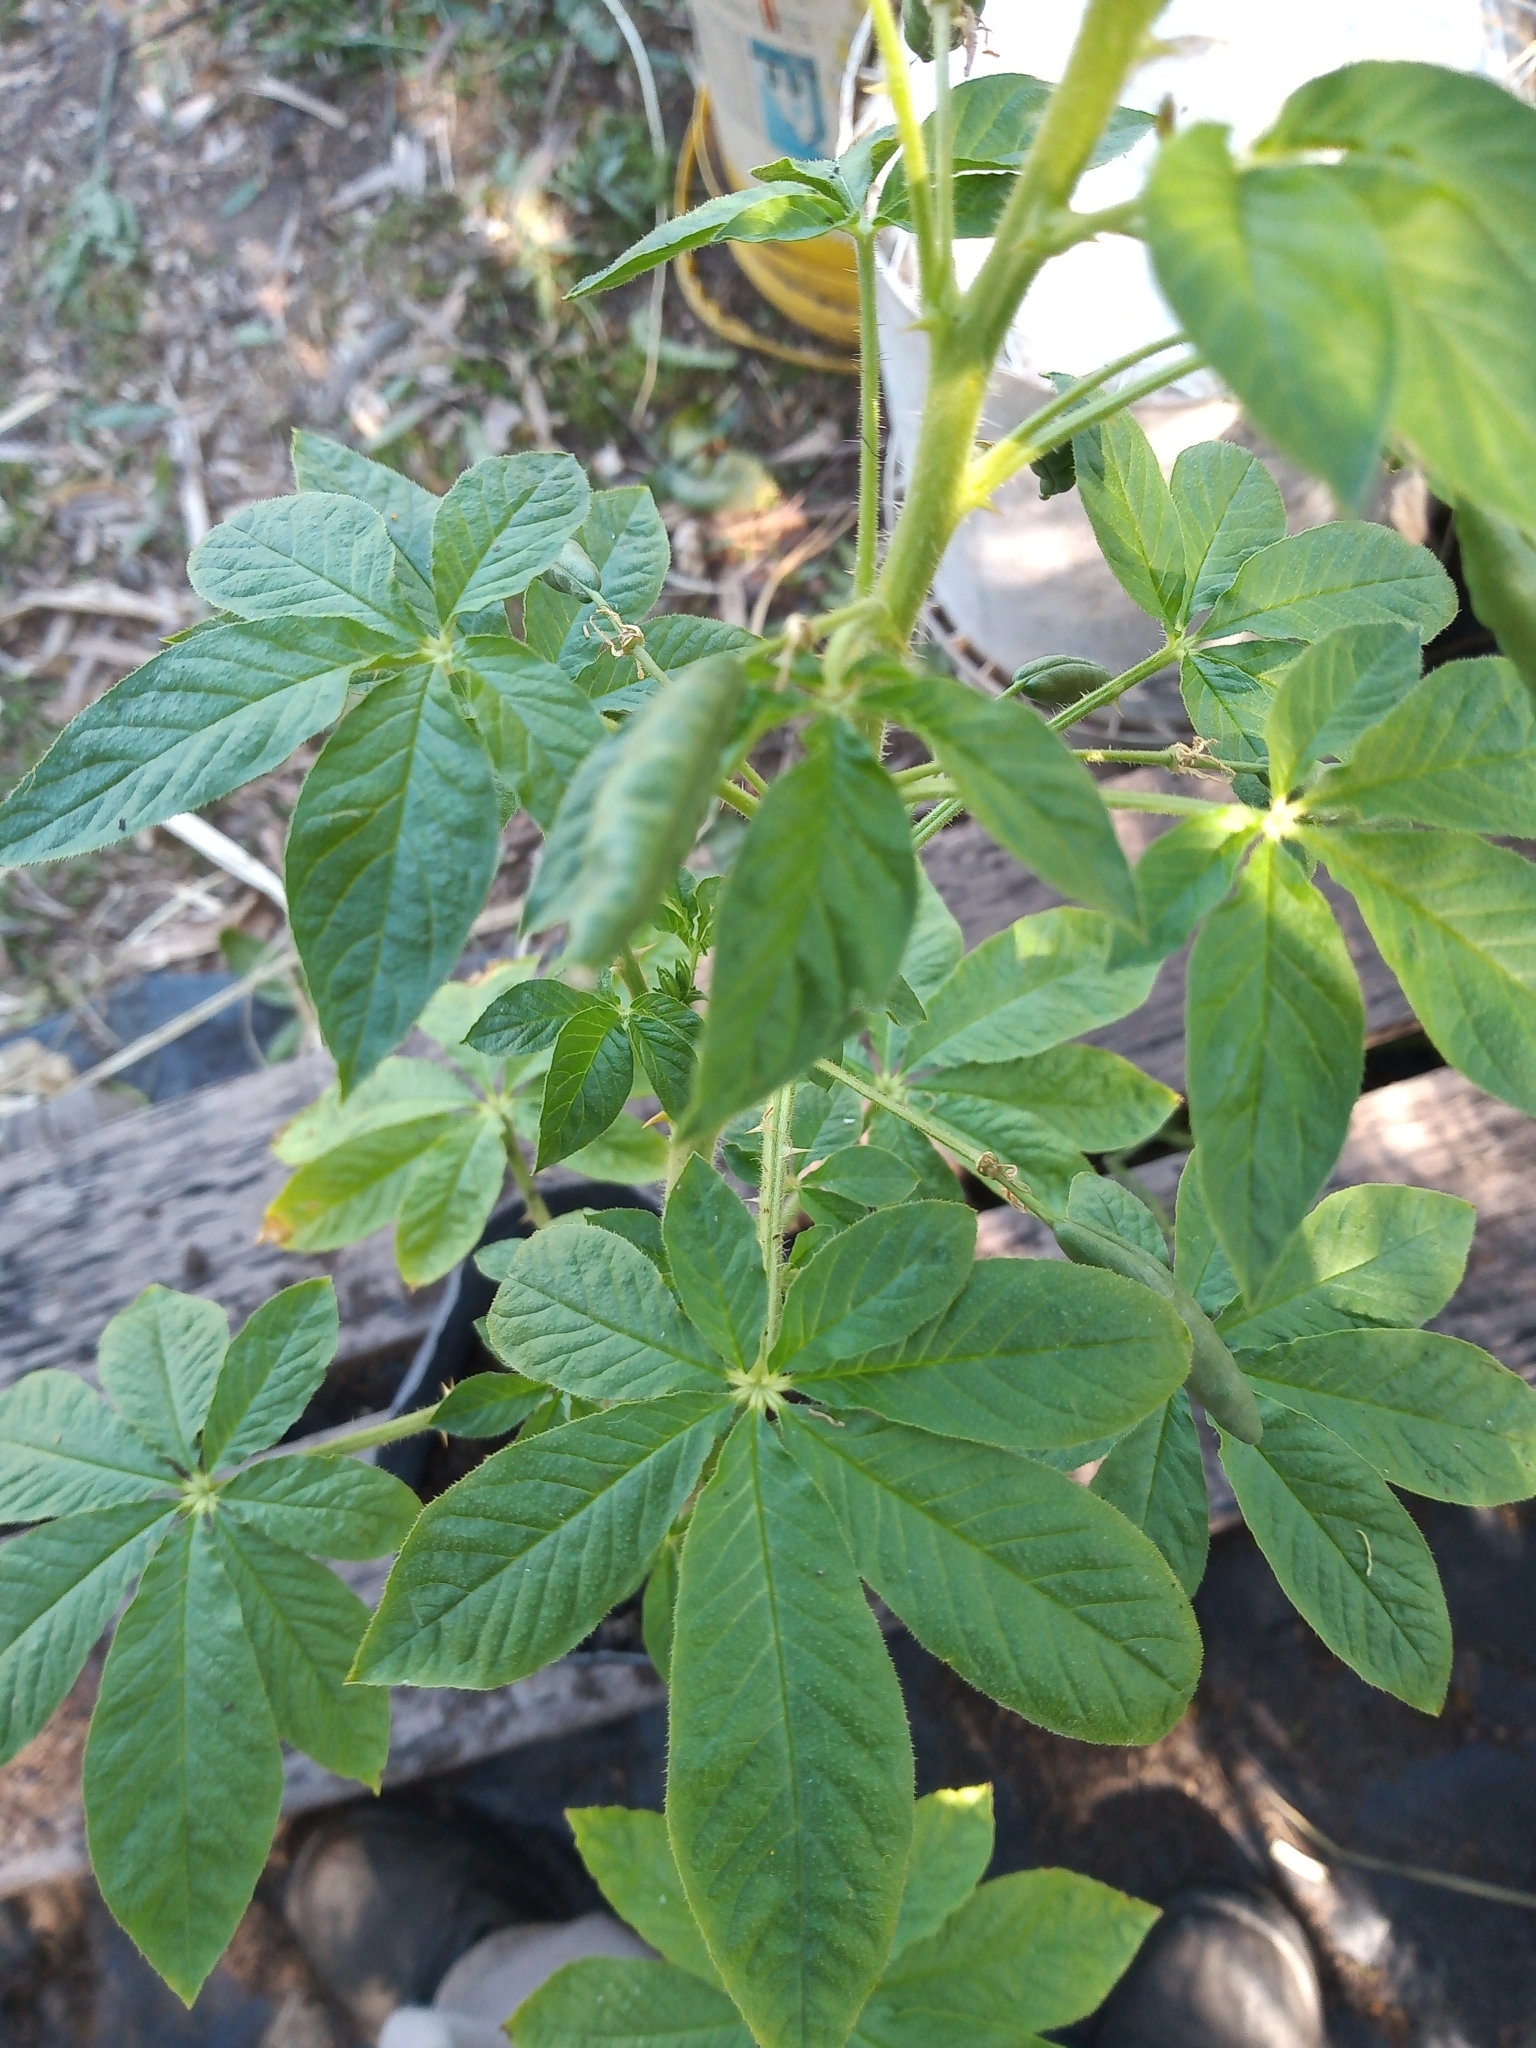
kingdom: Plantae
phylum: Tracheophyta
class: Magnoliopsida
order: Brassicales
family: Cleomaceae
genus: Tarenaya
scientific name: Tarenaya titubans
